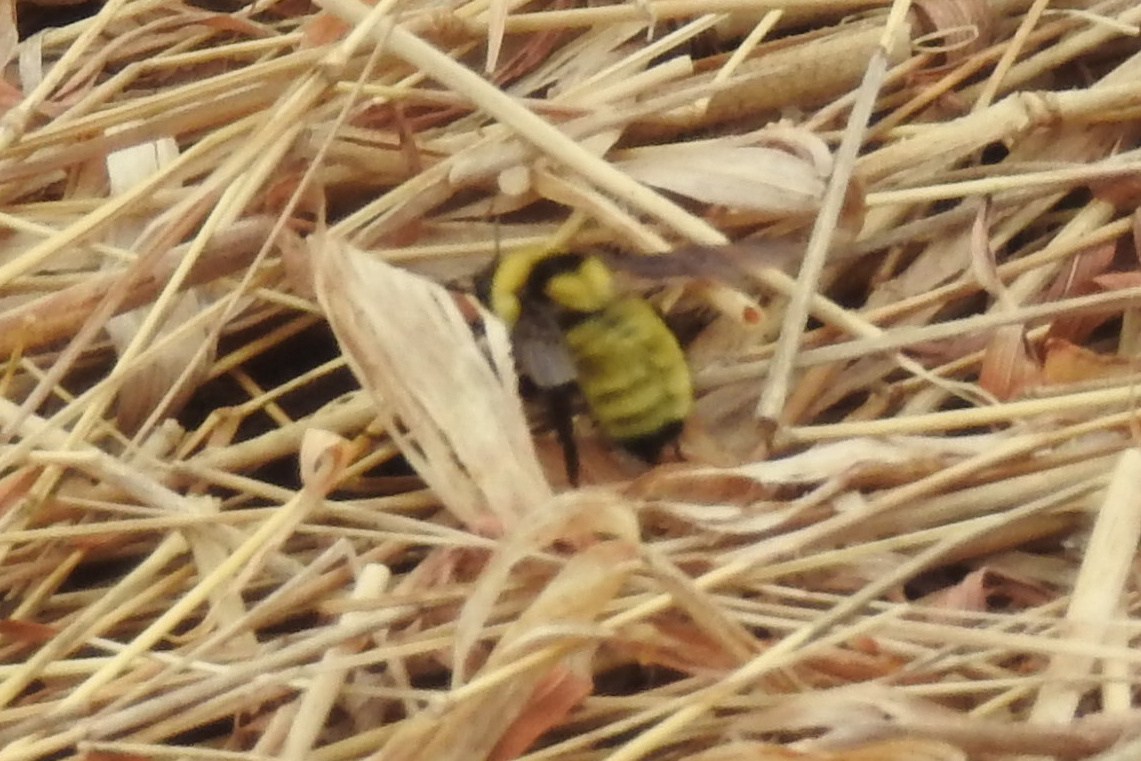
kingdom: Animalia
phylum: Arthropoda
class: Insecta
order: Hymenoptera
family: Apidae
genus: Bombus
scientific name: Bombus fervidus
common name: Yellow bumble bee
